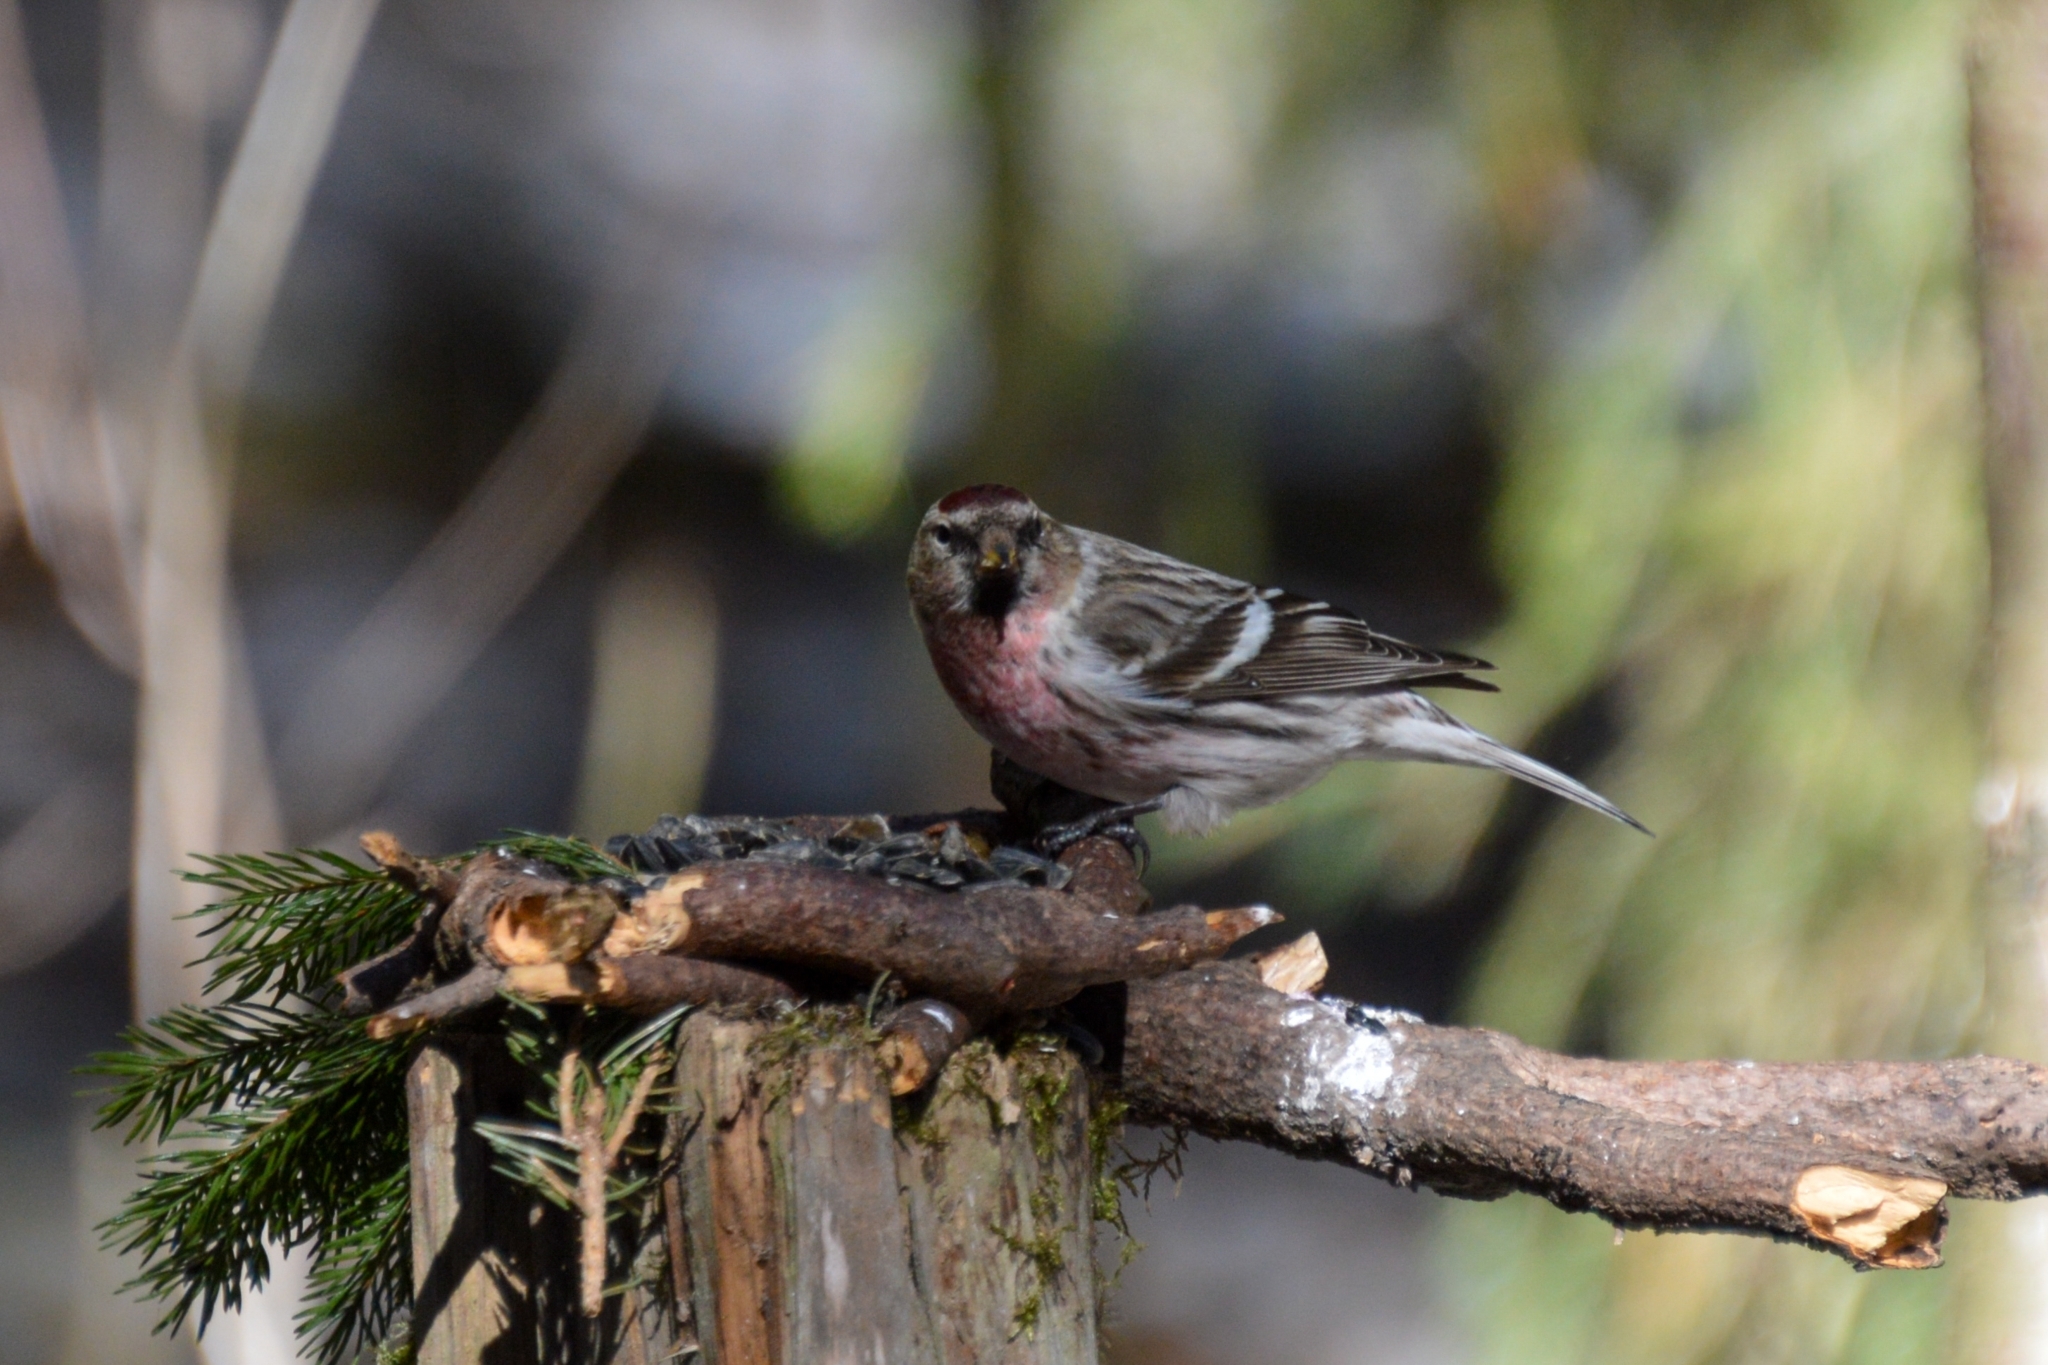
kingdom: Animalia
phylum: Chordata
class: Aves
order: Passeriformes
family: Fringillidae
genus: Acanthis
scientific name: Acanthis flammea
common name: Common redpoll
